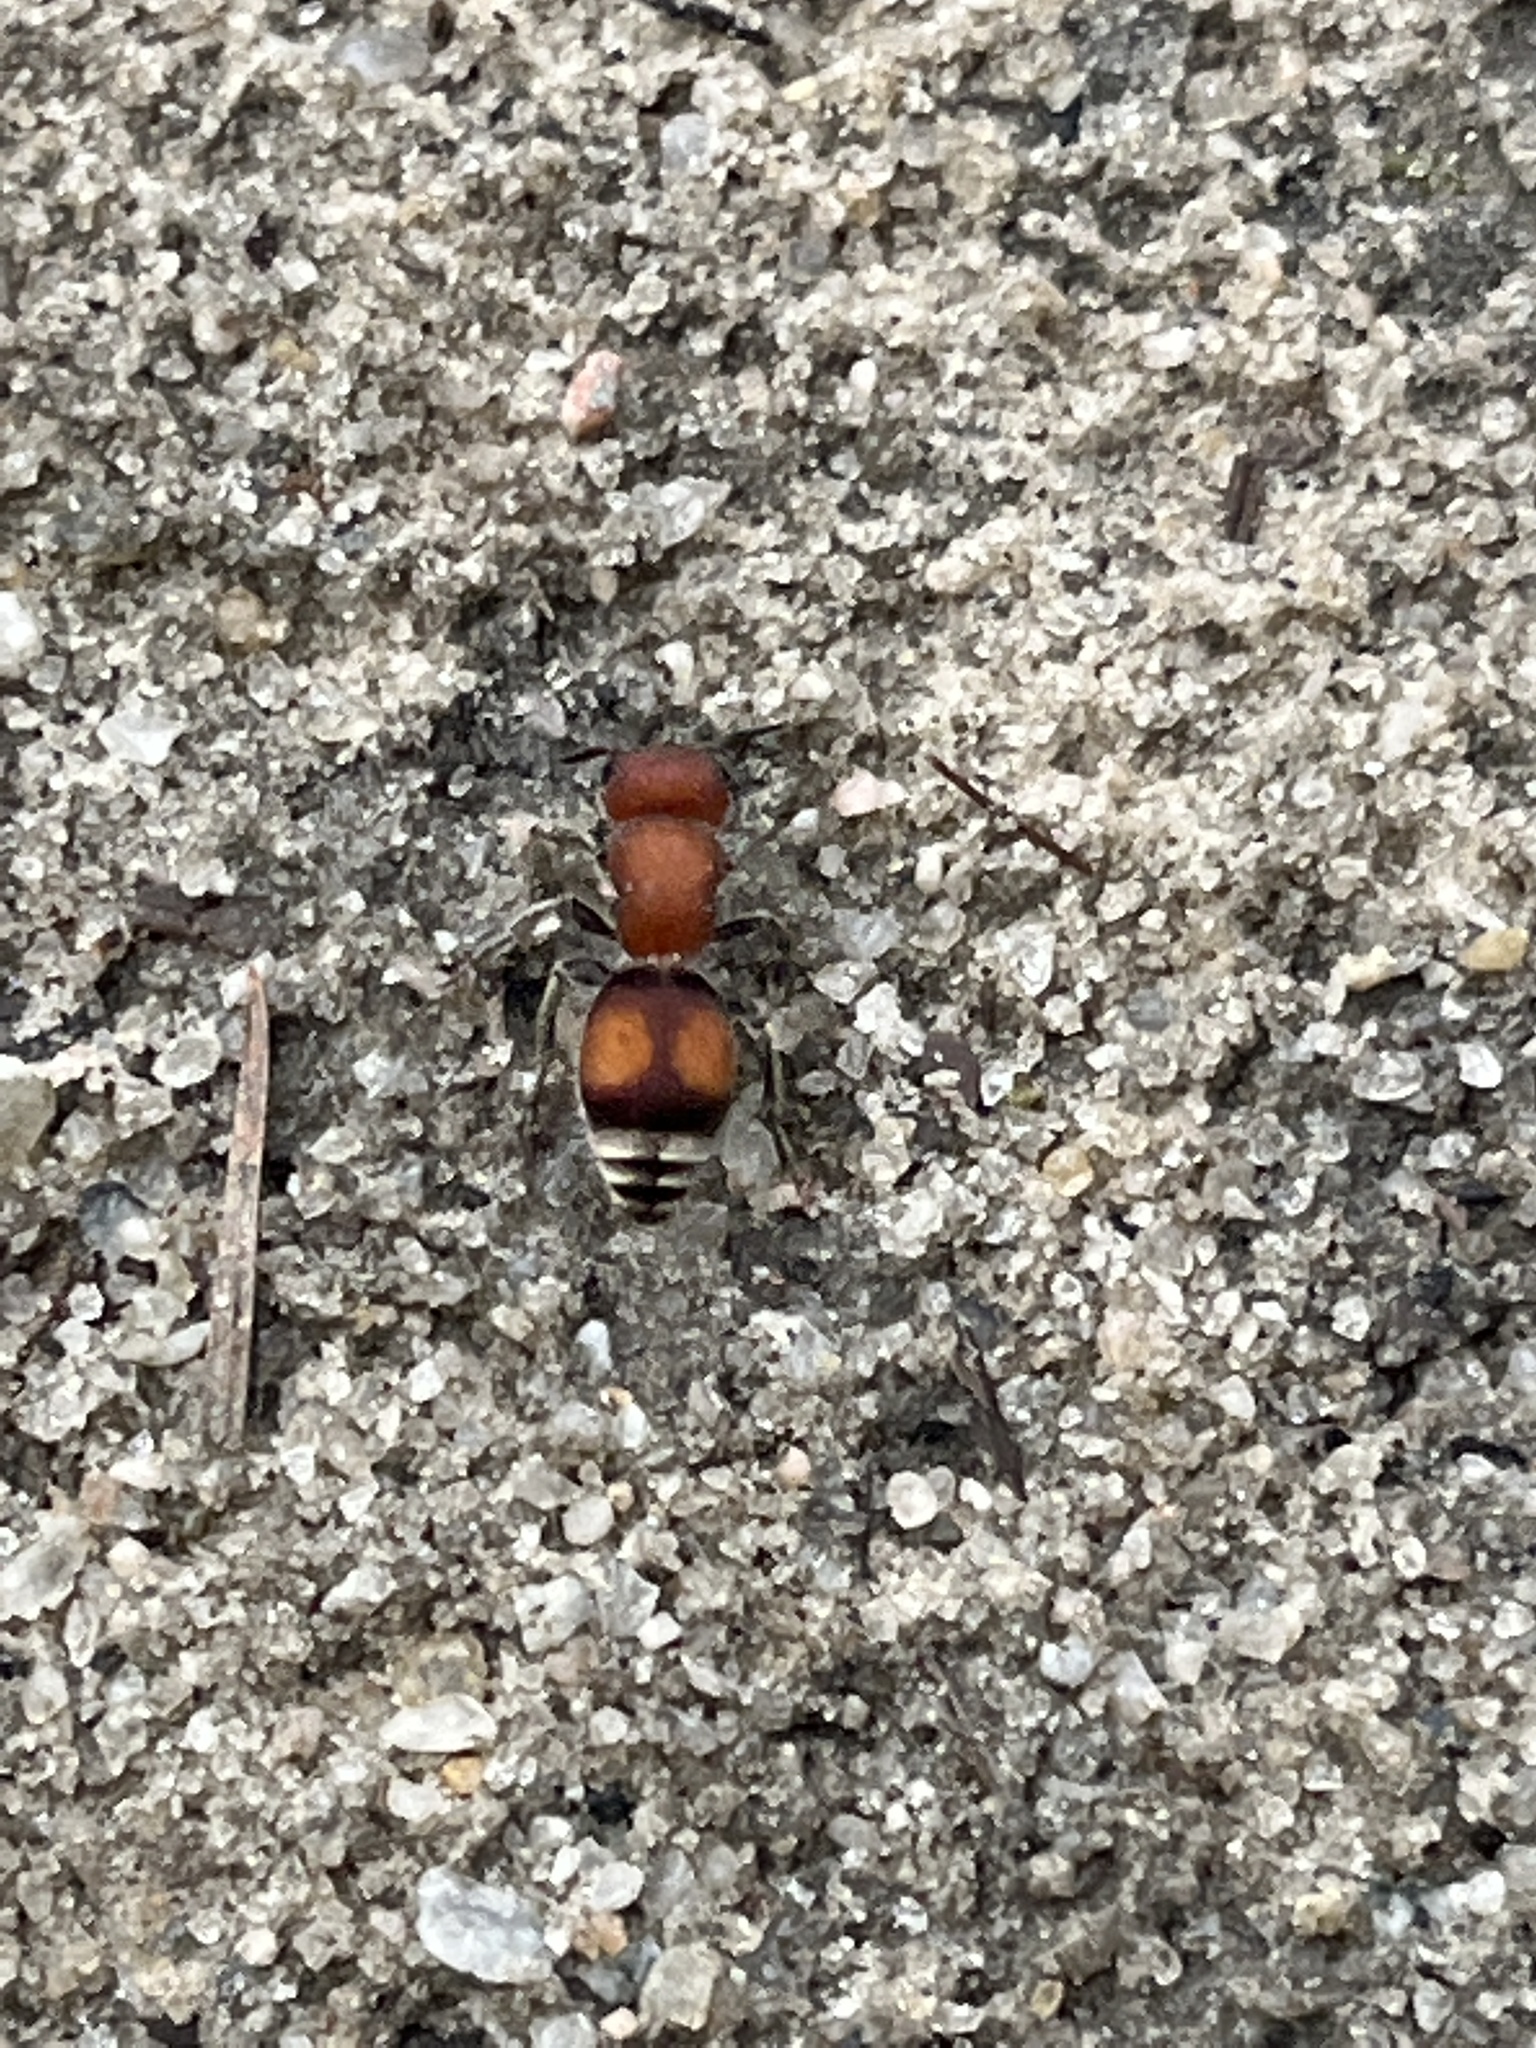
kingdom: Animalia
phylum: Arthropoda
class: Insecta
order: Hymenoptera
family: Mutillidae
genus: Pseudomethoca
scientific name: Pseudomethoca
